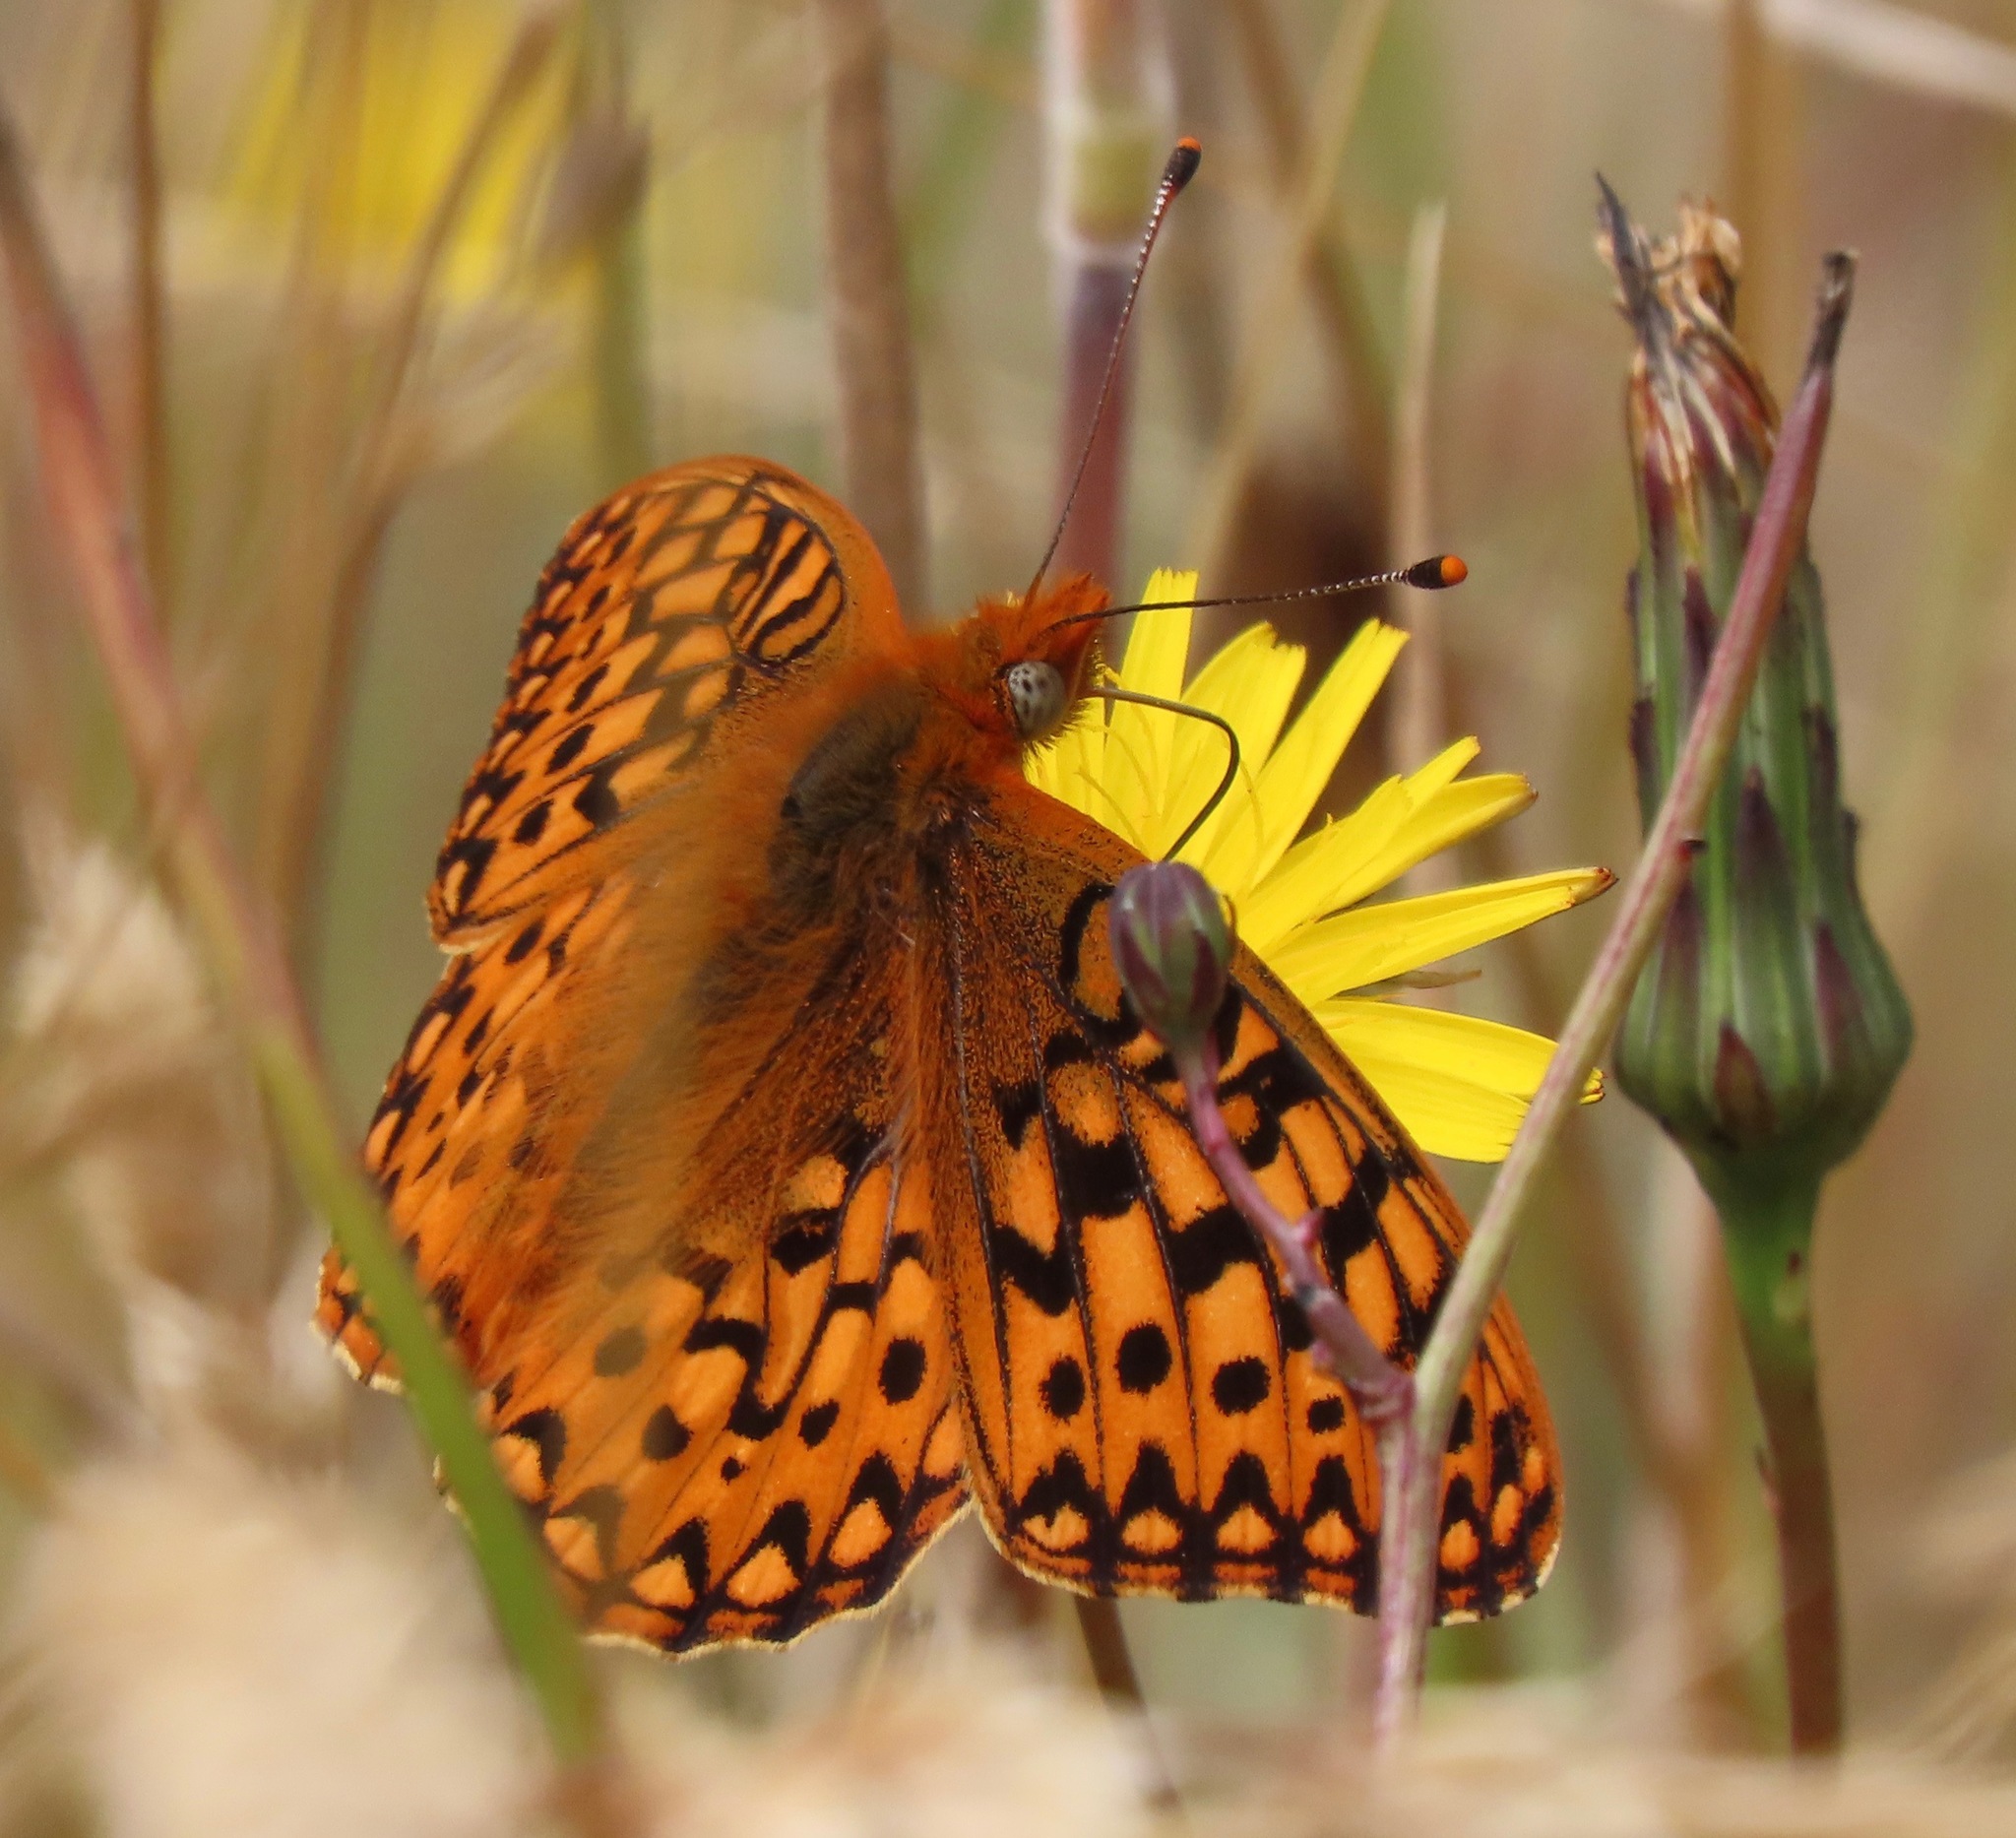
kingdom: Animalia
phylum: Arthropoda
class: Insecta
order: Lepidoptera
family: Nymphalidae
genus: Speyeria
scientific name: Speyeria zerene
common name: Zerene fritillary
